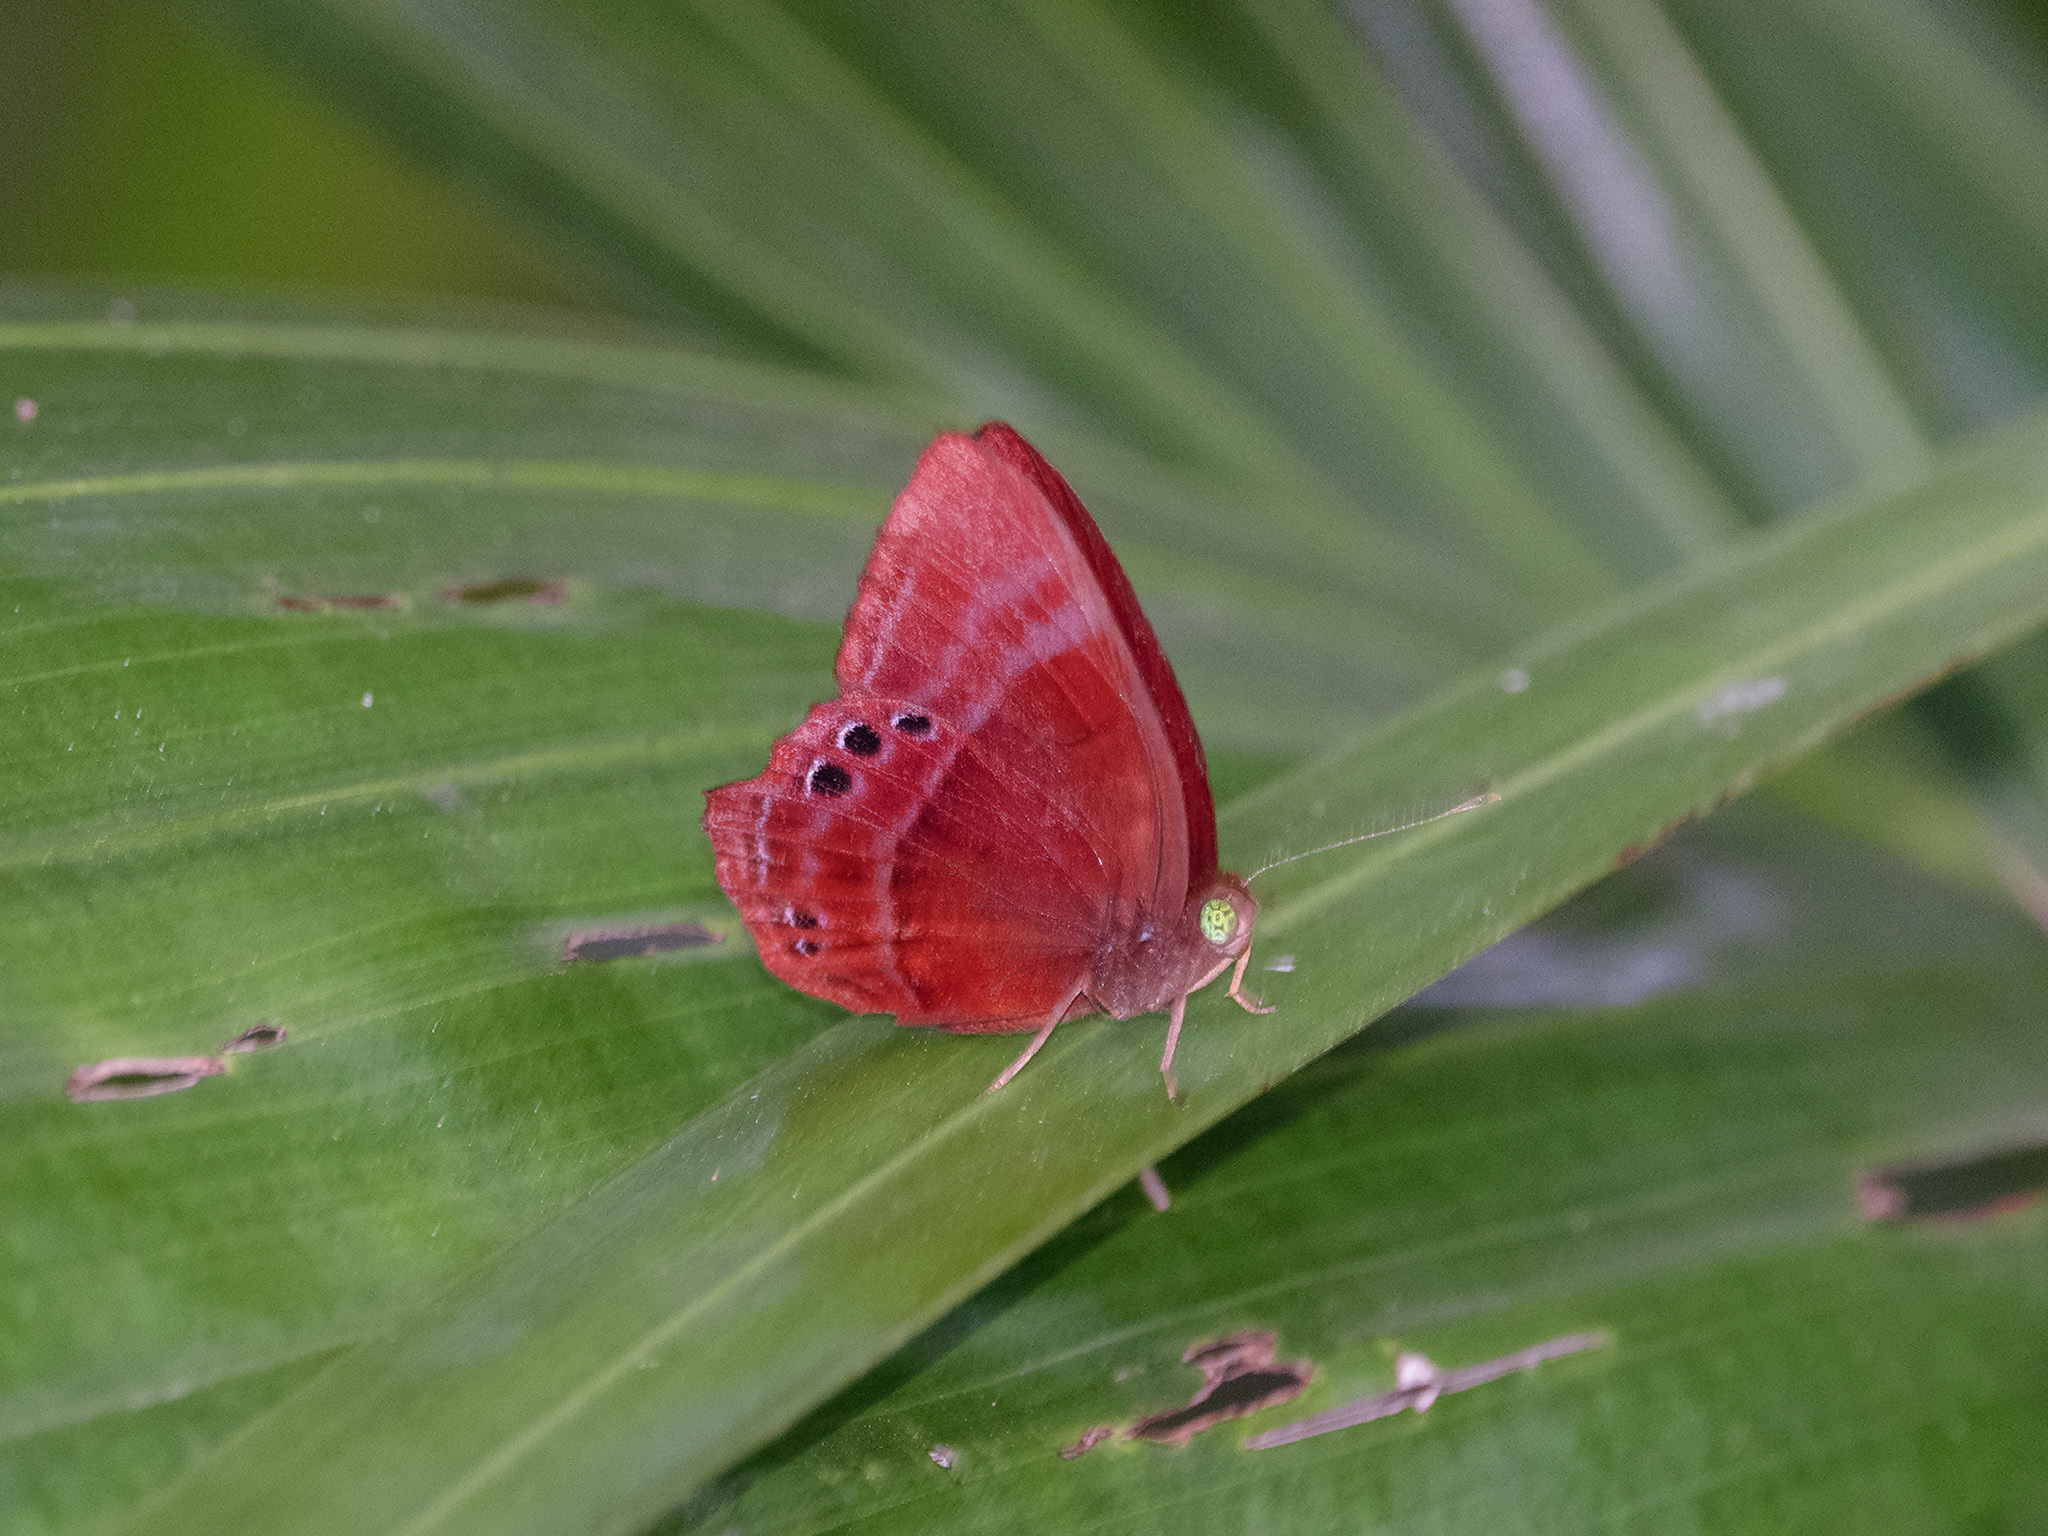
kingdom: Animalia
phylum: Arthropoda
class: Insecta
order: Lepidoptera
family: Lycaenidae
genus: Abisara
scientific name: Abisara saturata
